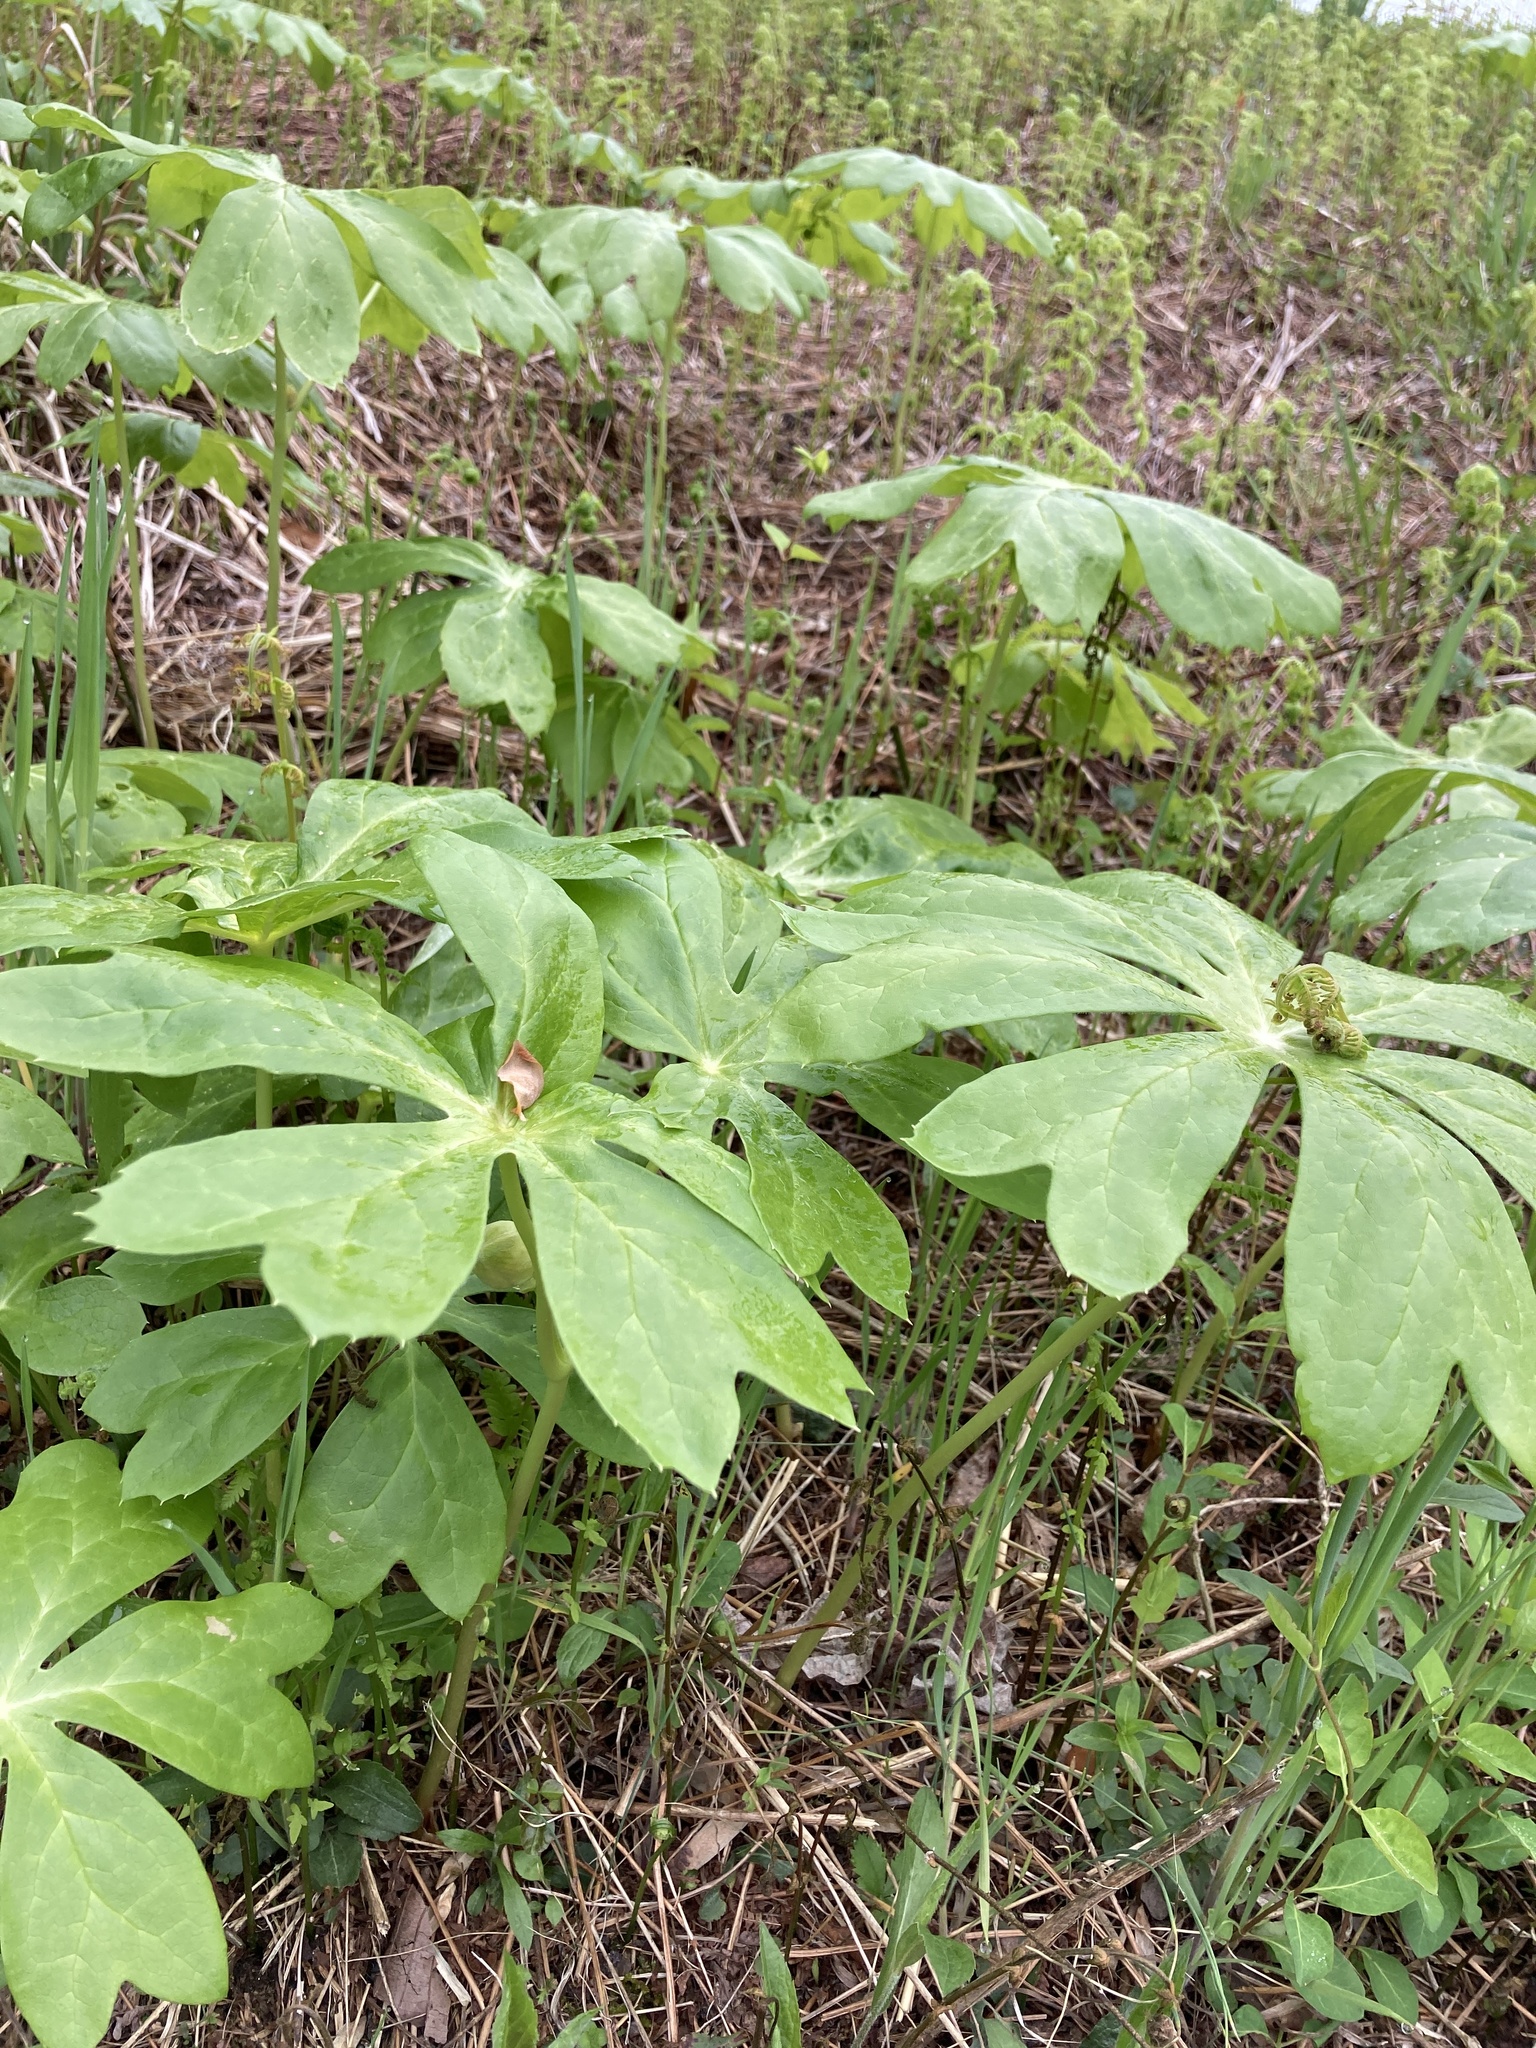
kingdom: Plantae
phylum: Tracheophyta
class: Magnoliopsida
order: Ranunculales
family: Berberidaceae
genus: Podophyllum
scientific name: Podophyllum peltatum
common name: Wild mandrake
